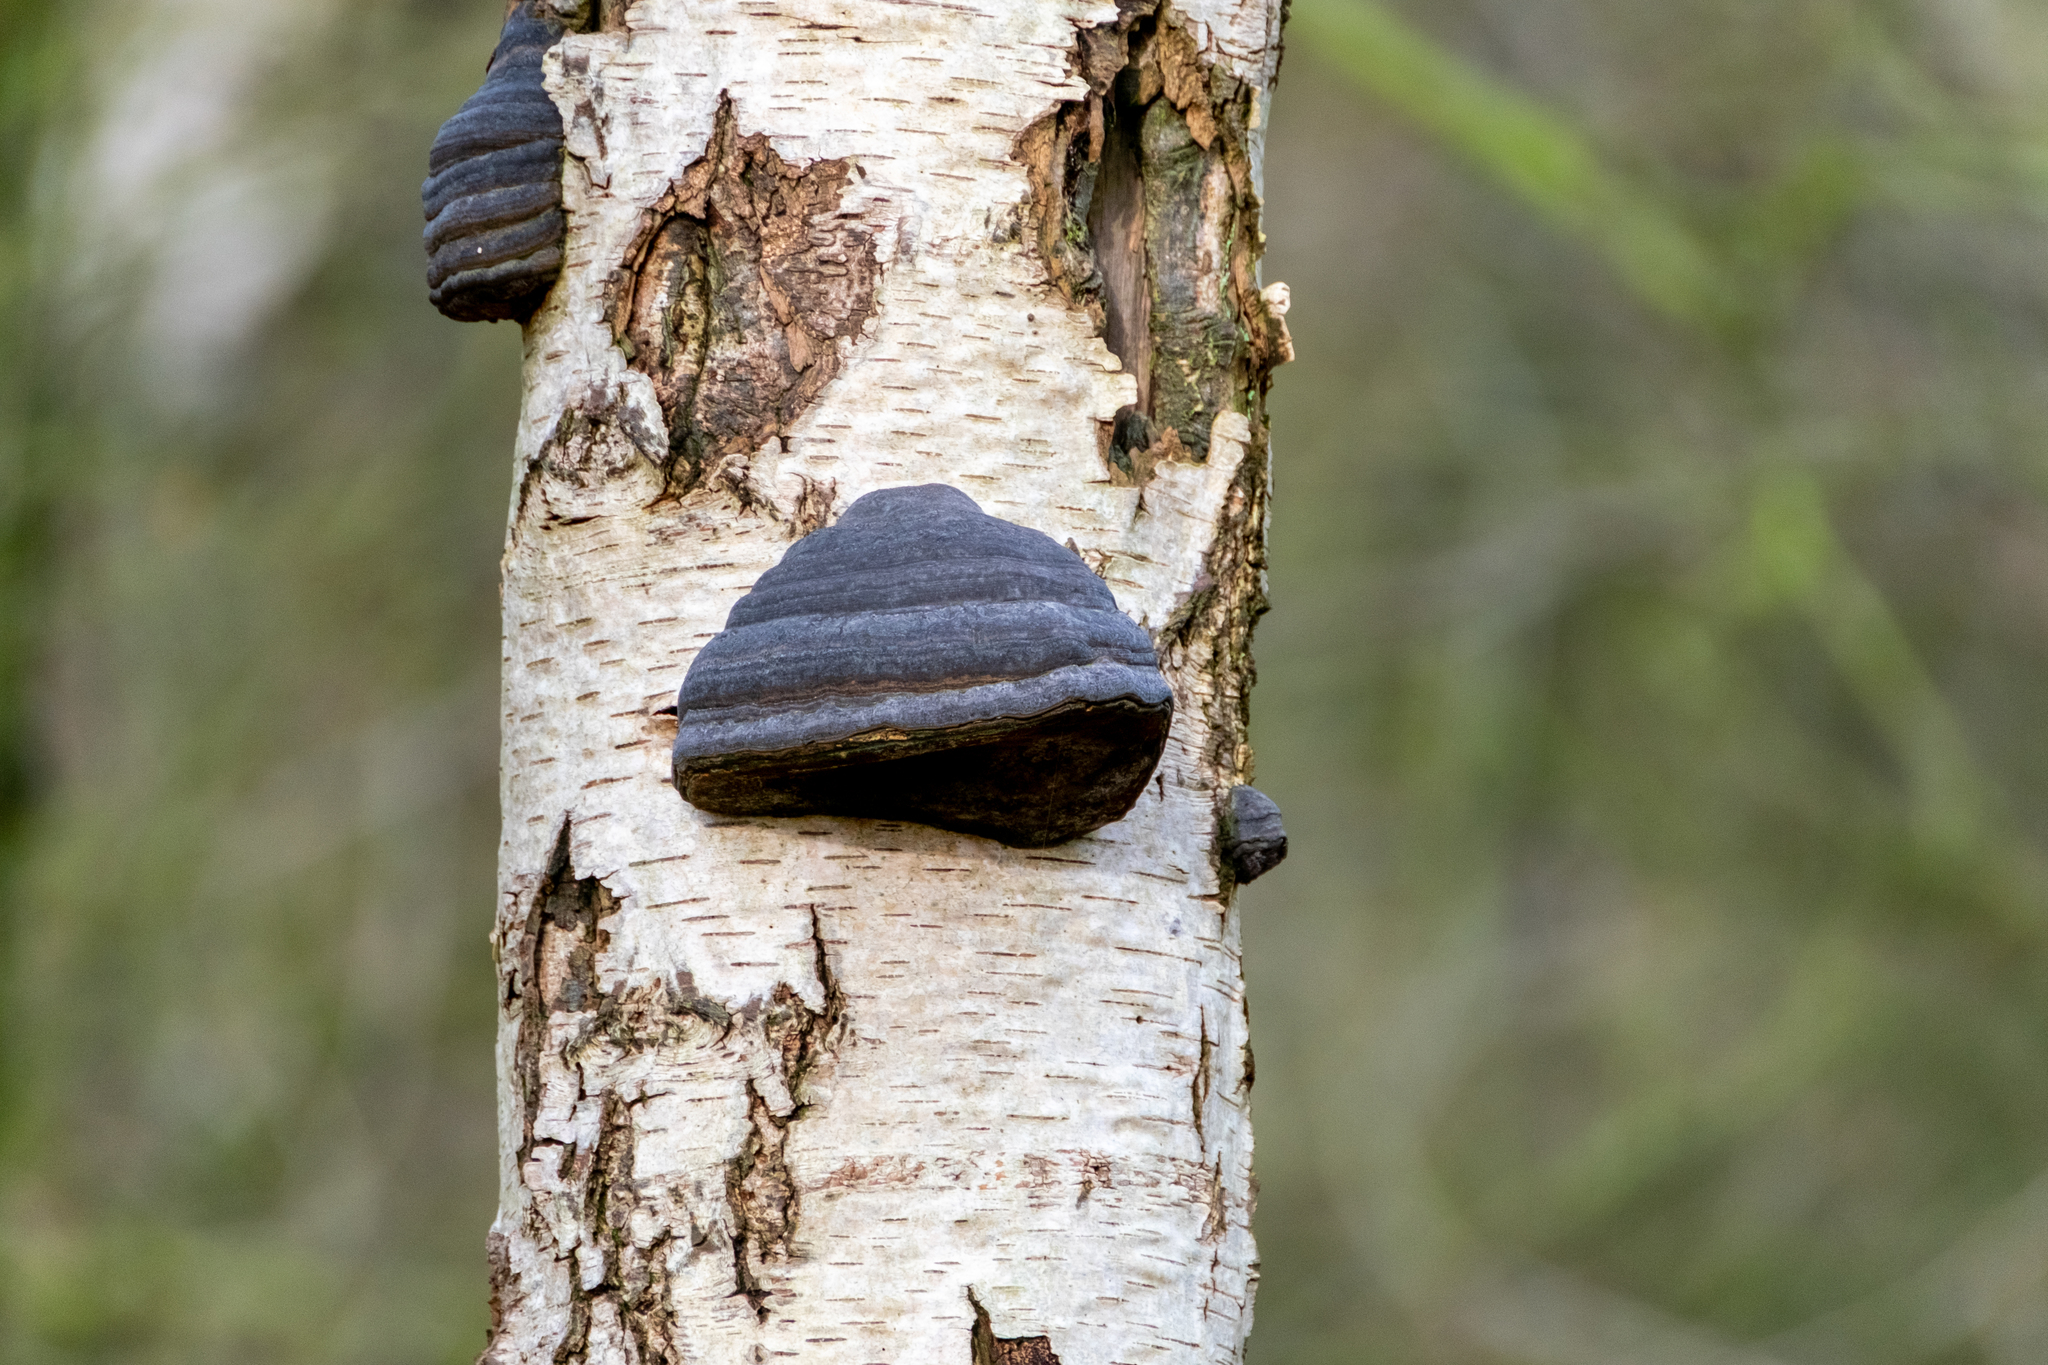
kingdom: Fungi
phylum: Basidiomycota
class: Agaricomycetes
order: Polyporales
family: Polyporaceae
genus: Fomes
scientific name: Fomes fomentarius
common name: Hoof fungus
